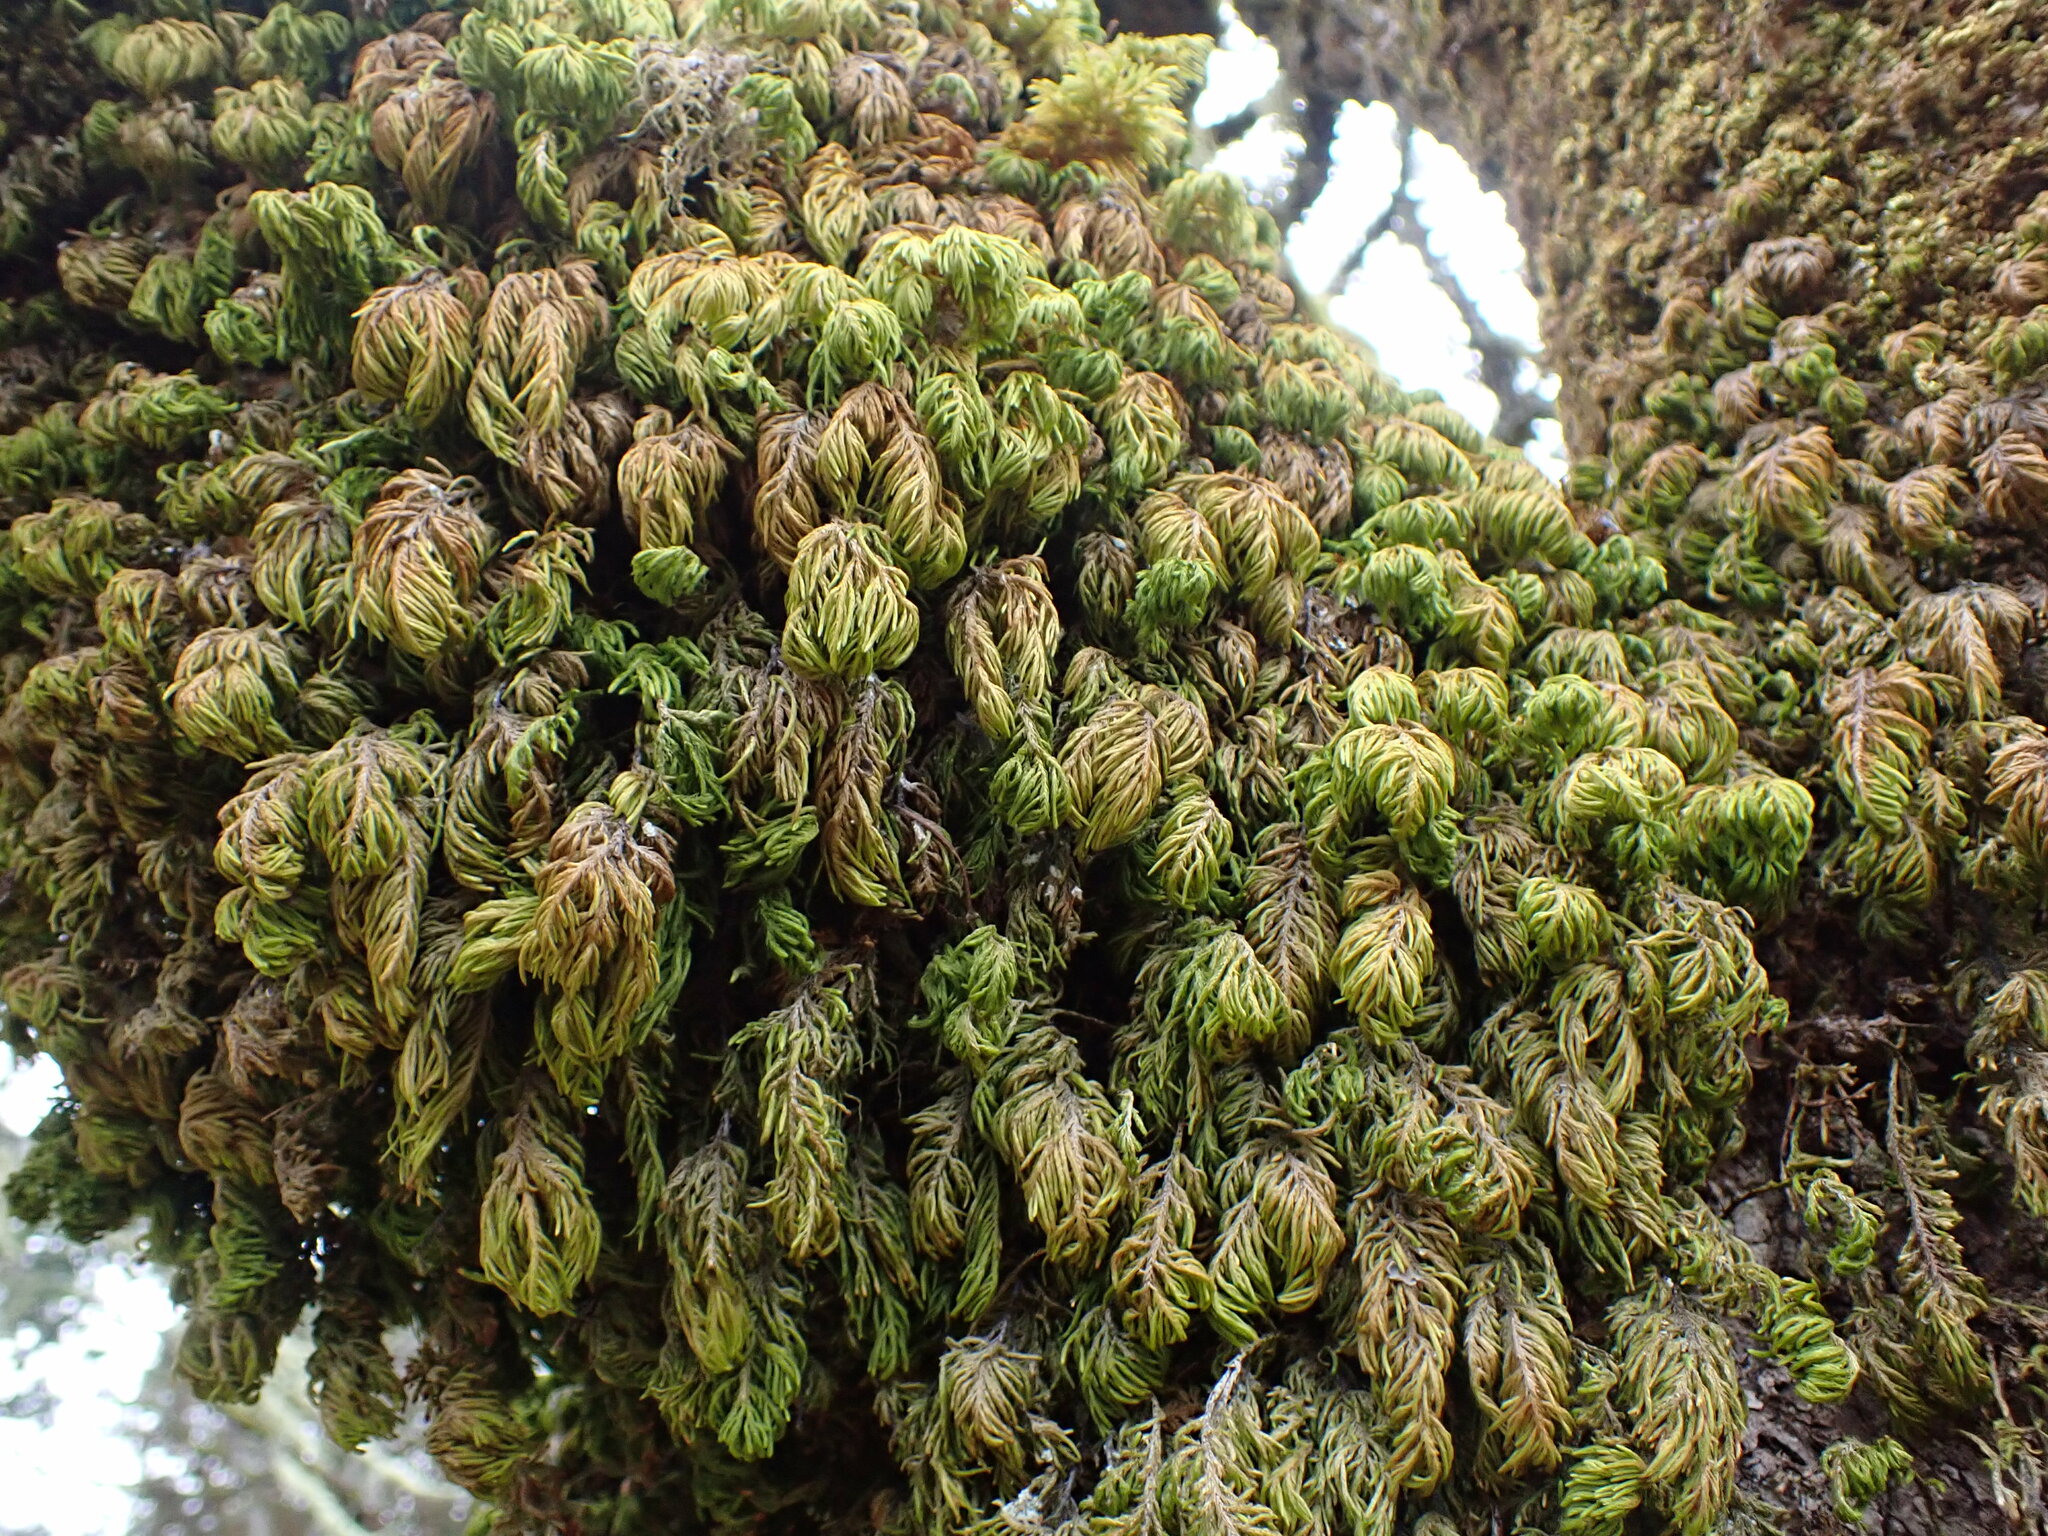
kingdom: Plantae
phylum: Bryophyta
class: Bryopsida
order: Hypnales
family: Cryphaeaceae
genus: Dendroalsia
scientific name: Dendroalsia abietina
